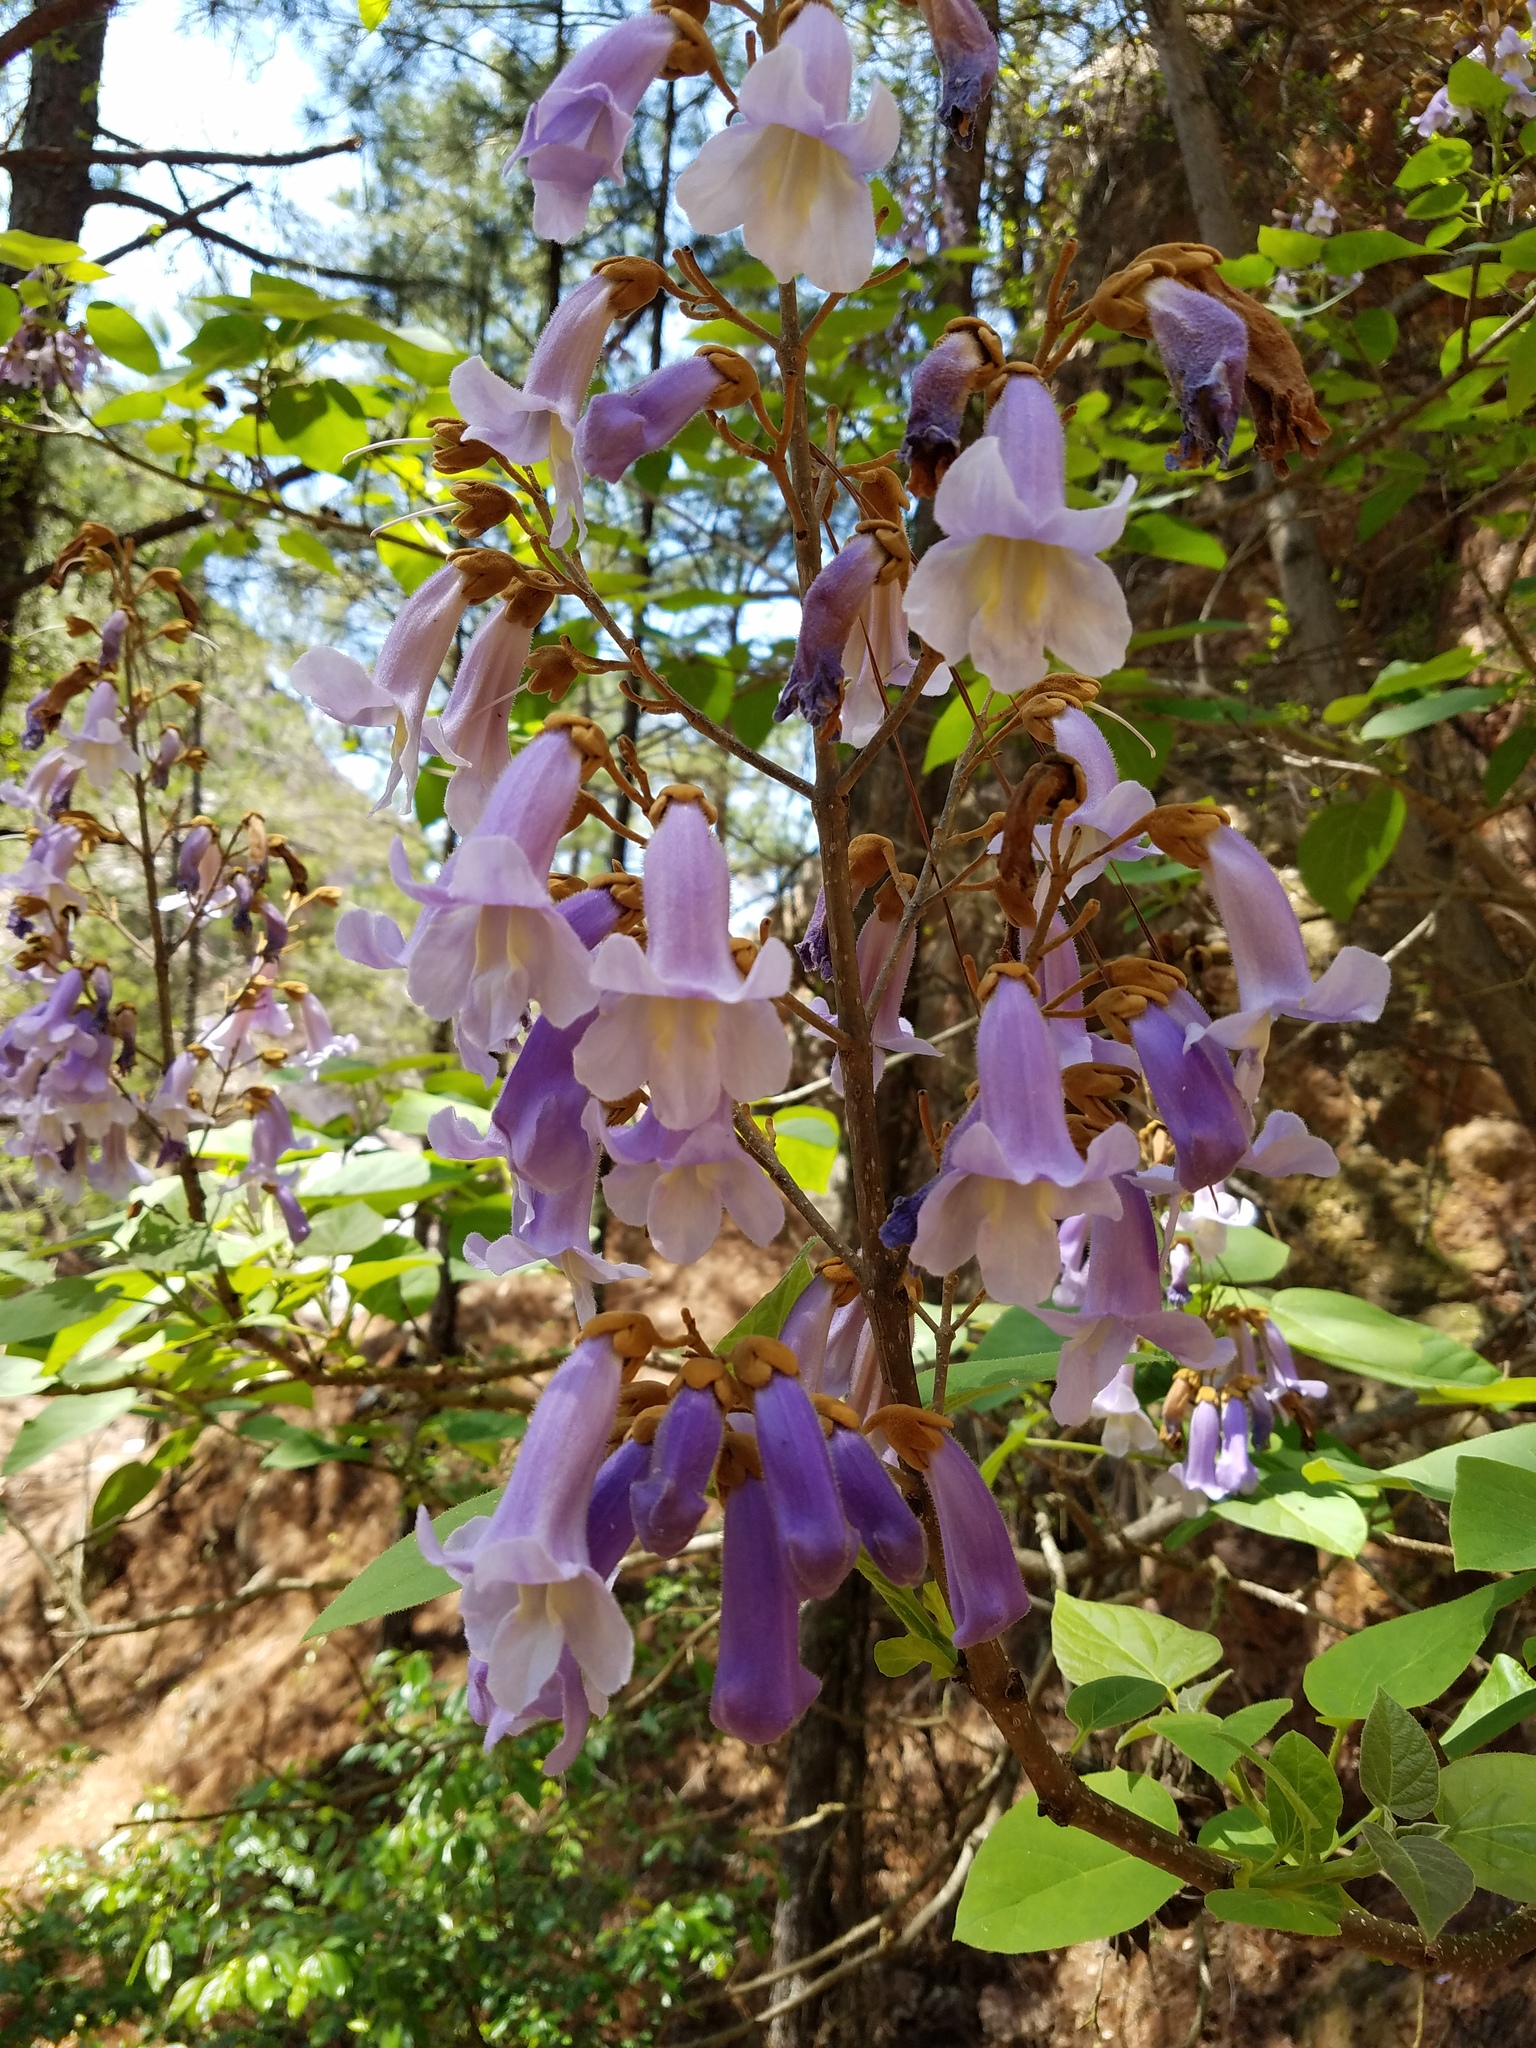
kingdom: Plantae
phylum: Tracheophyta
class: Magnoliopsida
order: Lamiales
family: Paulowniaceae
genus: Paulownia
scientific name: Paulownia tomentosa
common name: Foxglove-tree
